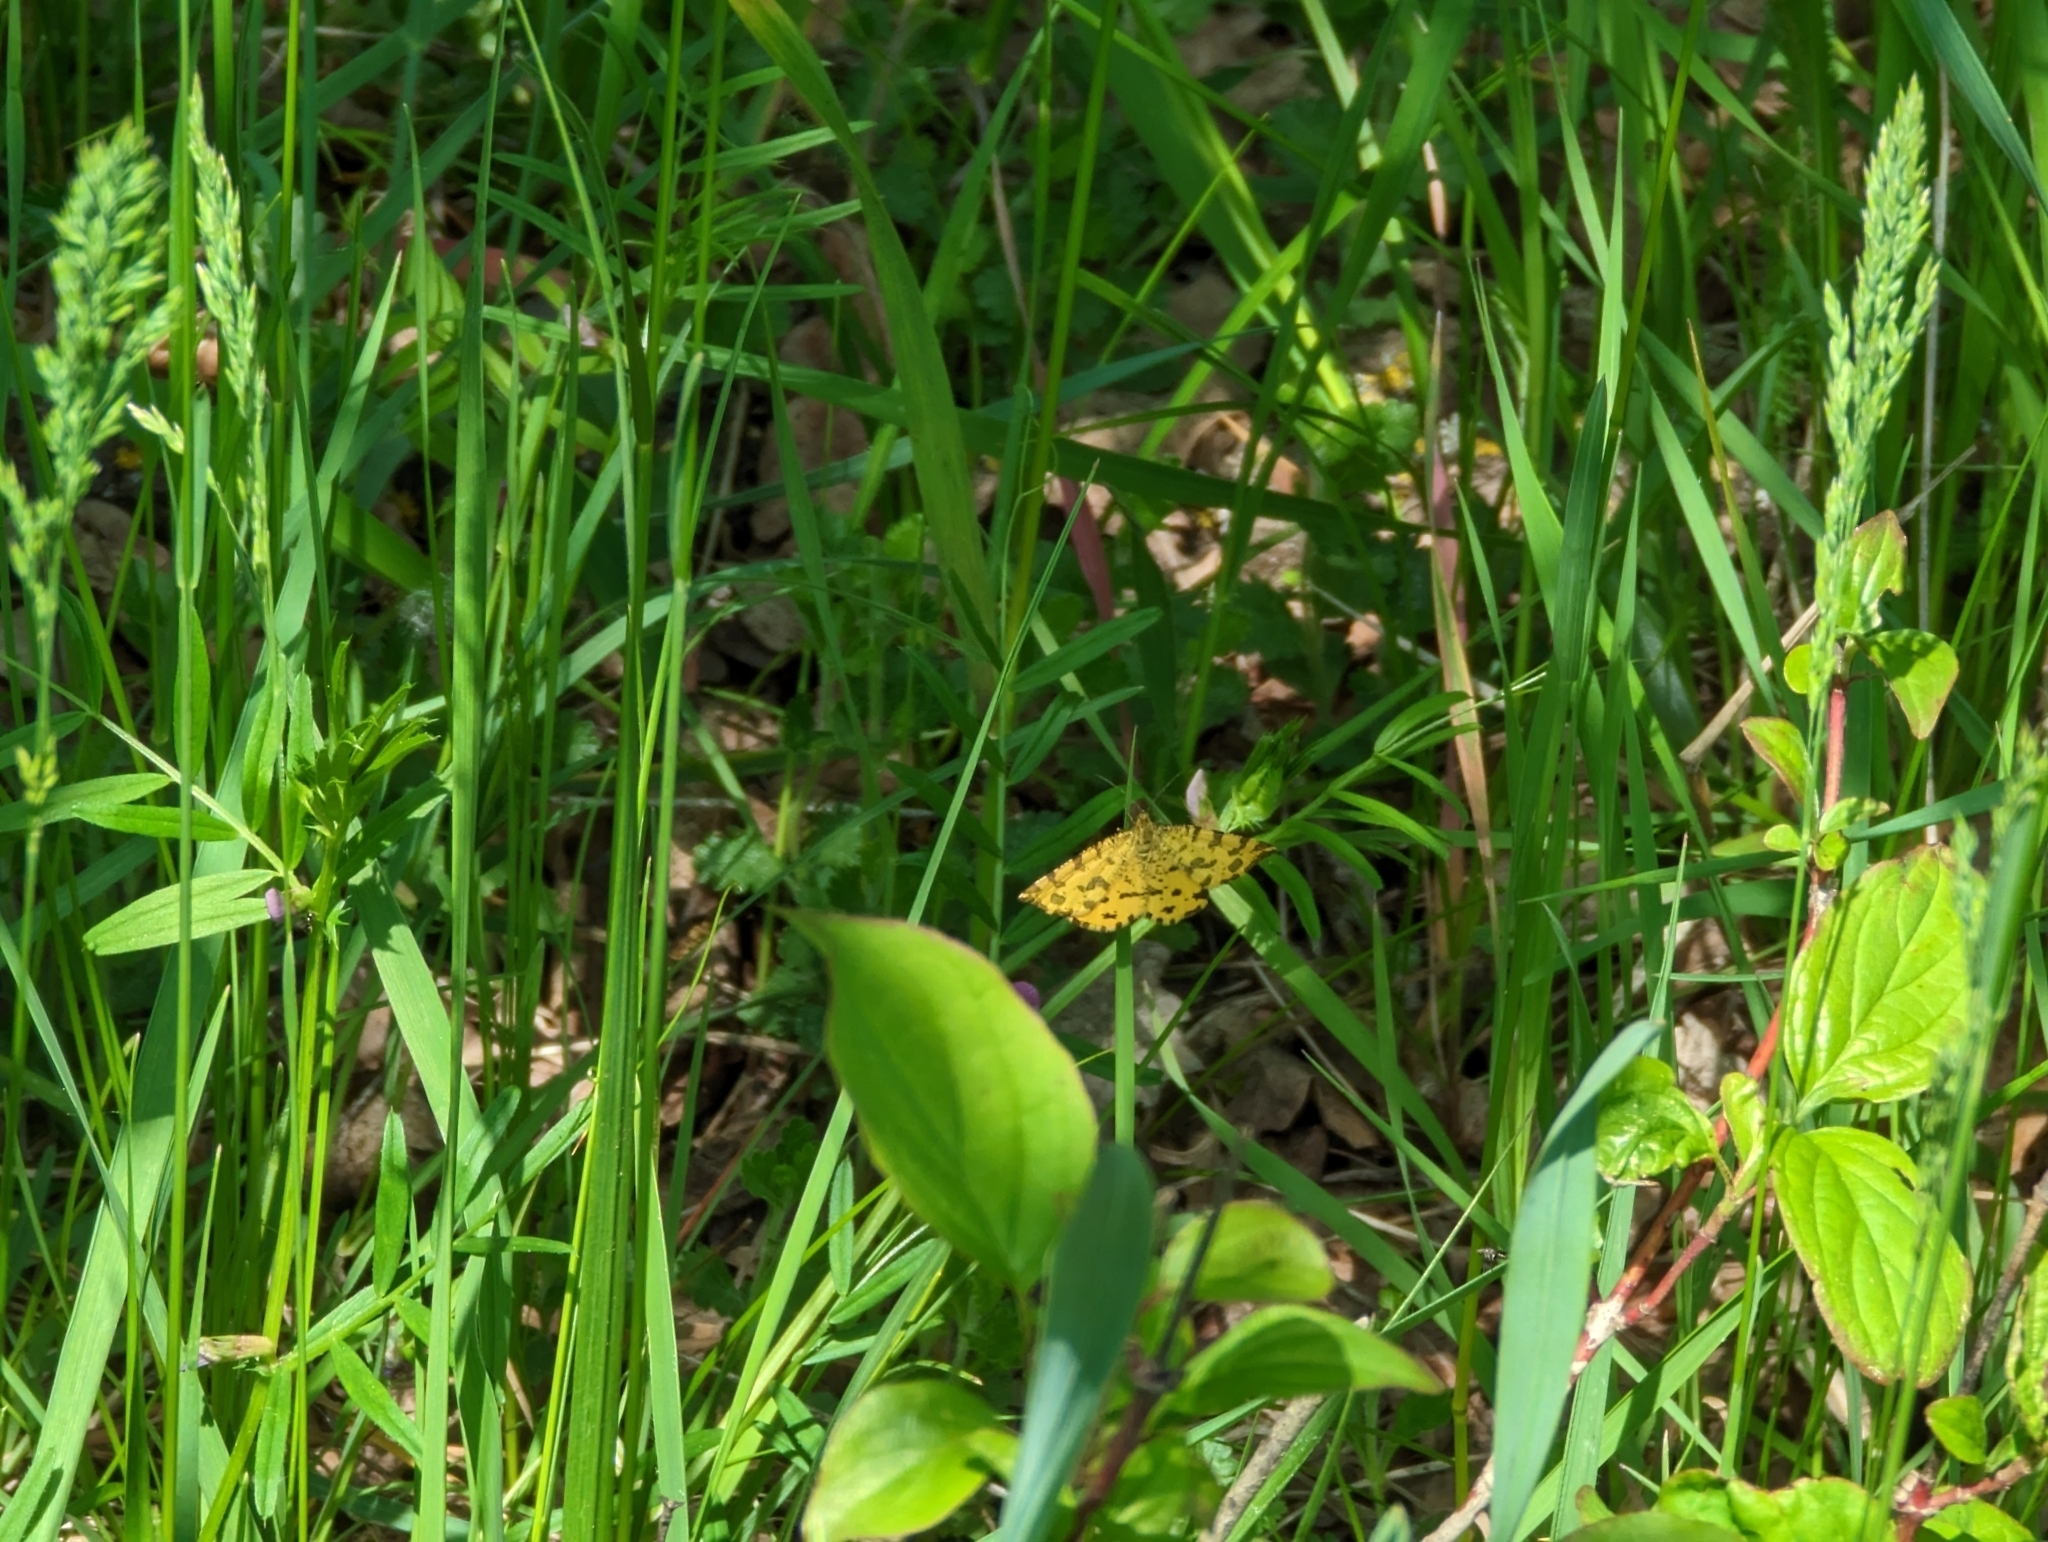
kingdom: Animalia
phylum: Arthropoda
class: Insecta
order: Lepidoptera
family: Geometridae
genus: Pseudopanthera
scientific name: Pseudopanthera macularia
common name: Speckled yellow
